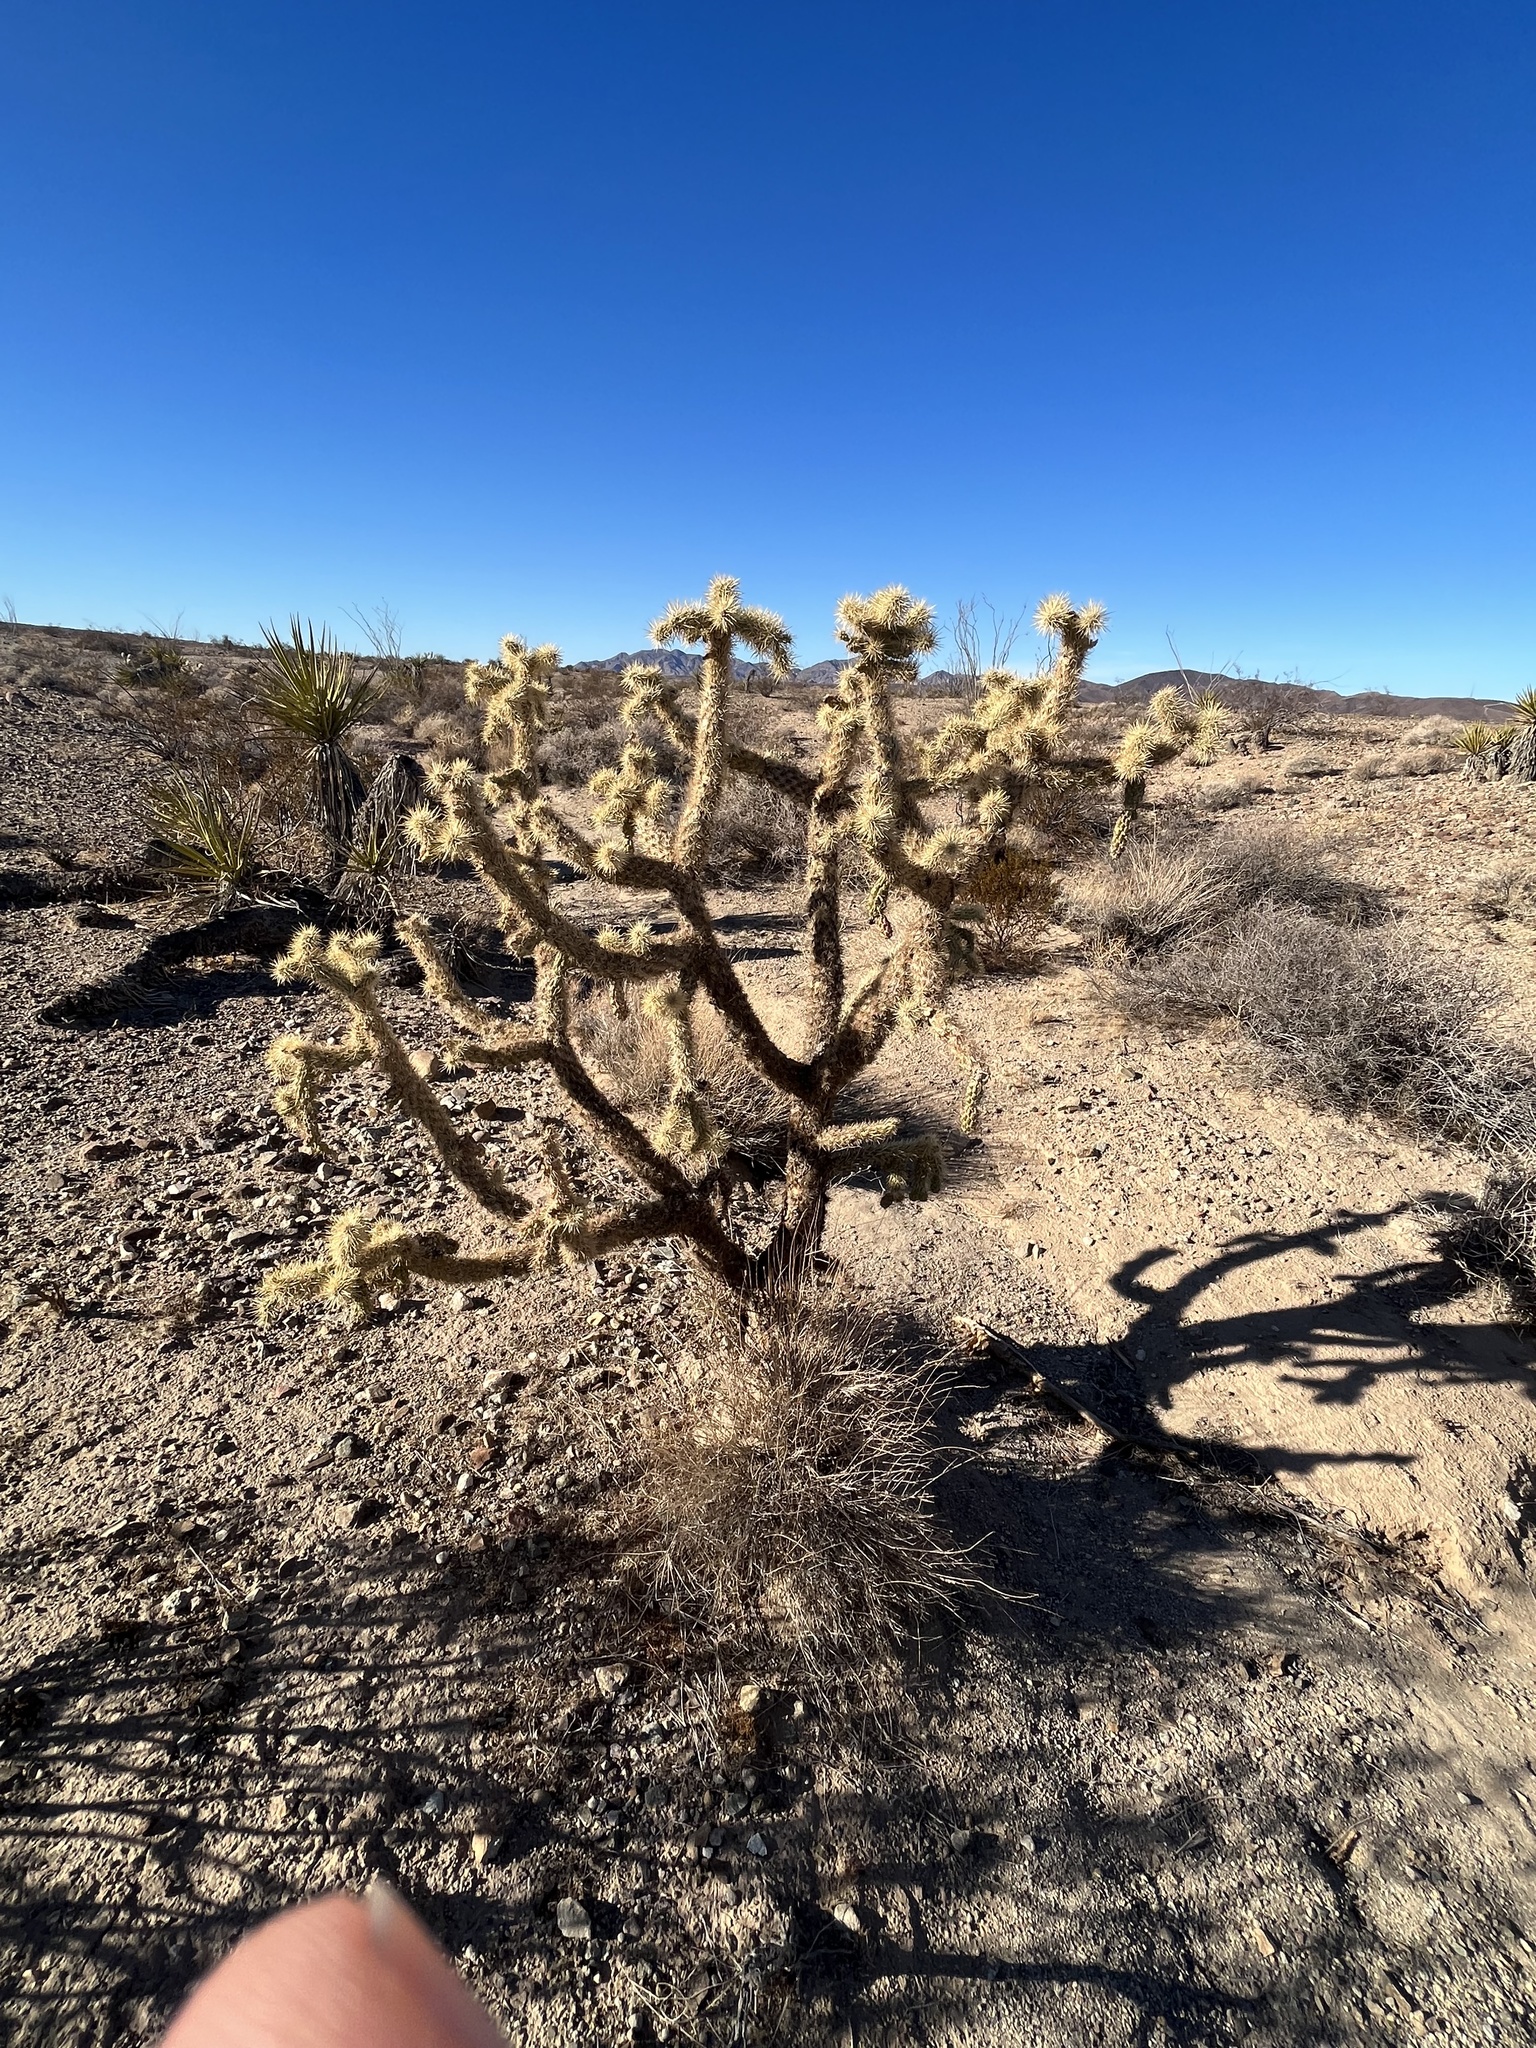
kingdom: Plantae
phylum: Tracheophyta
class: Magnoliopsida
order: Caryophyllales
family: Cactaceae
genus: Cylindropuntia
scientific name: Cylindropuntia munzii
